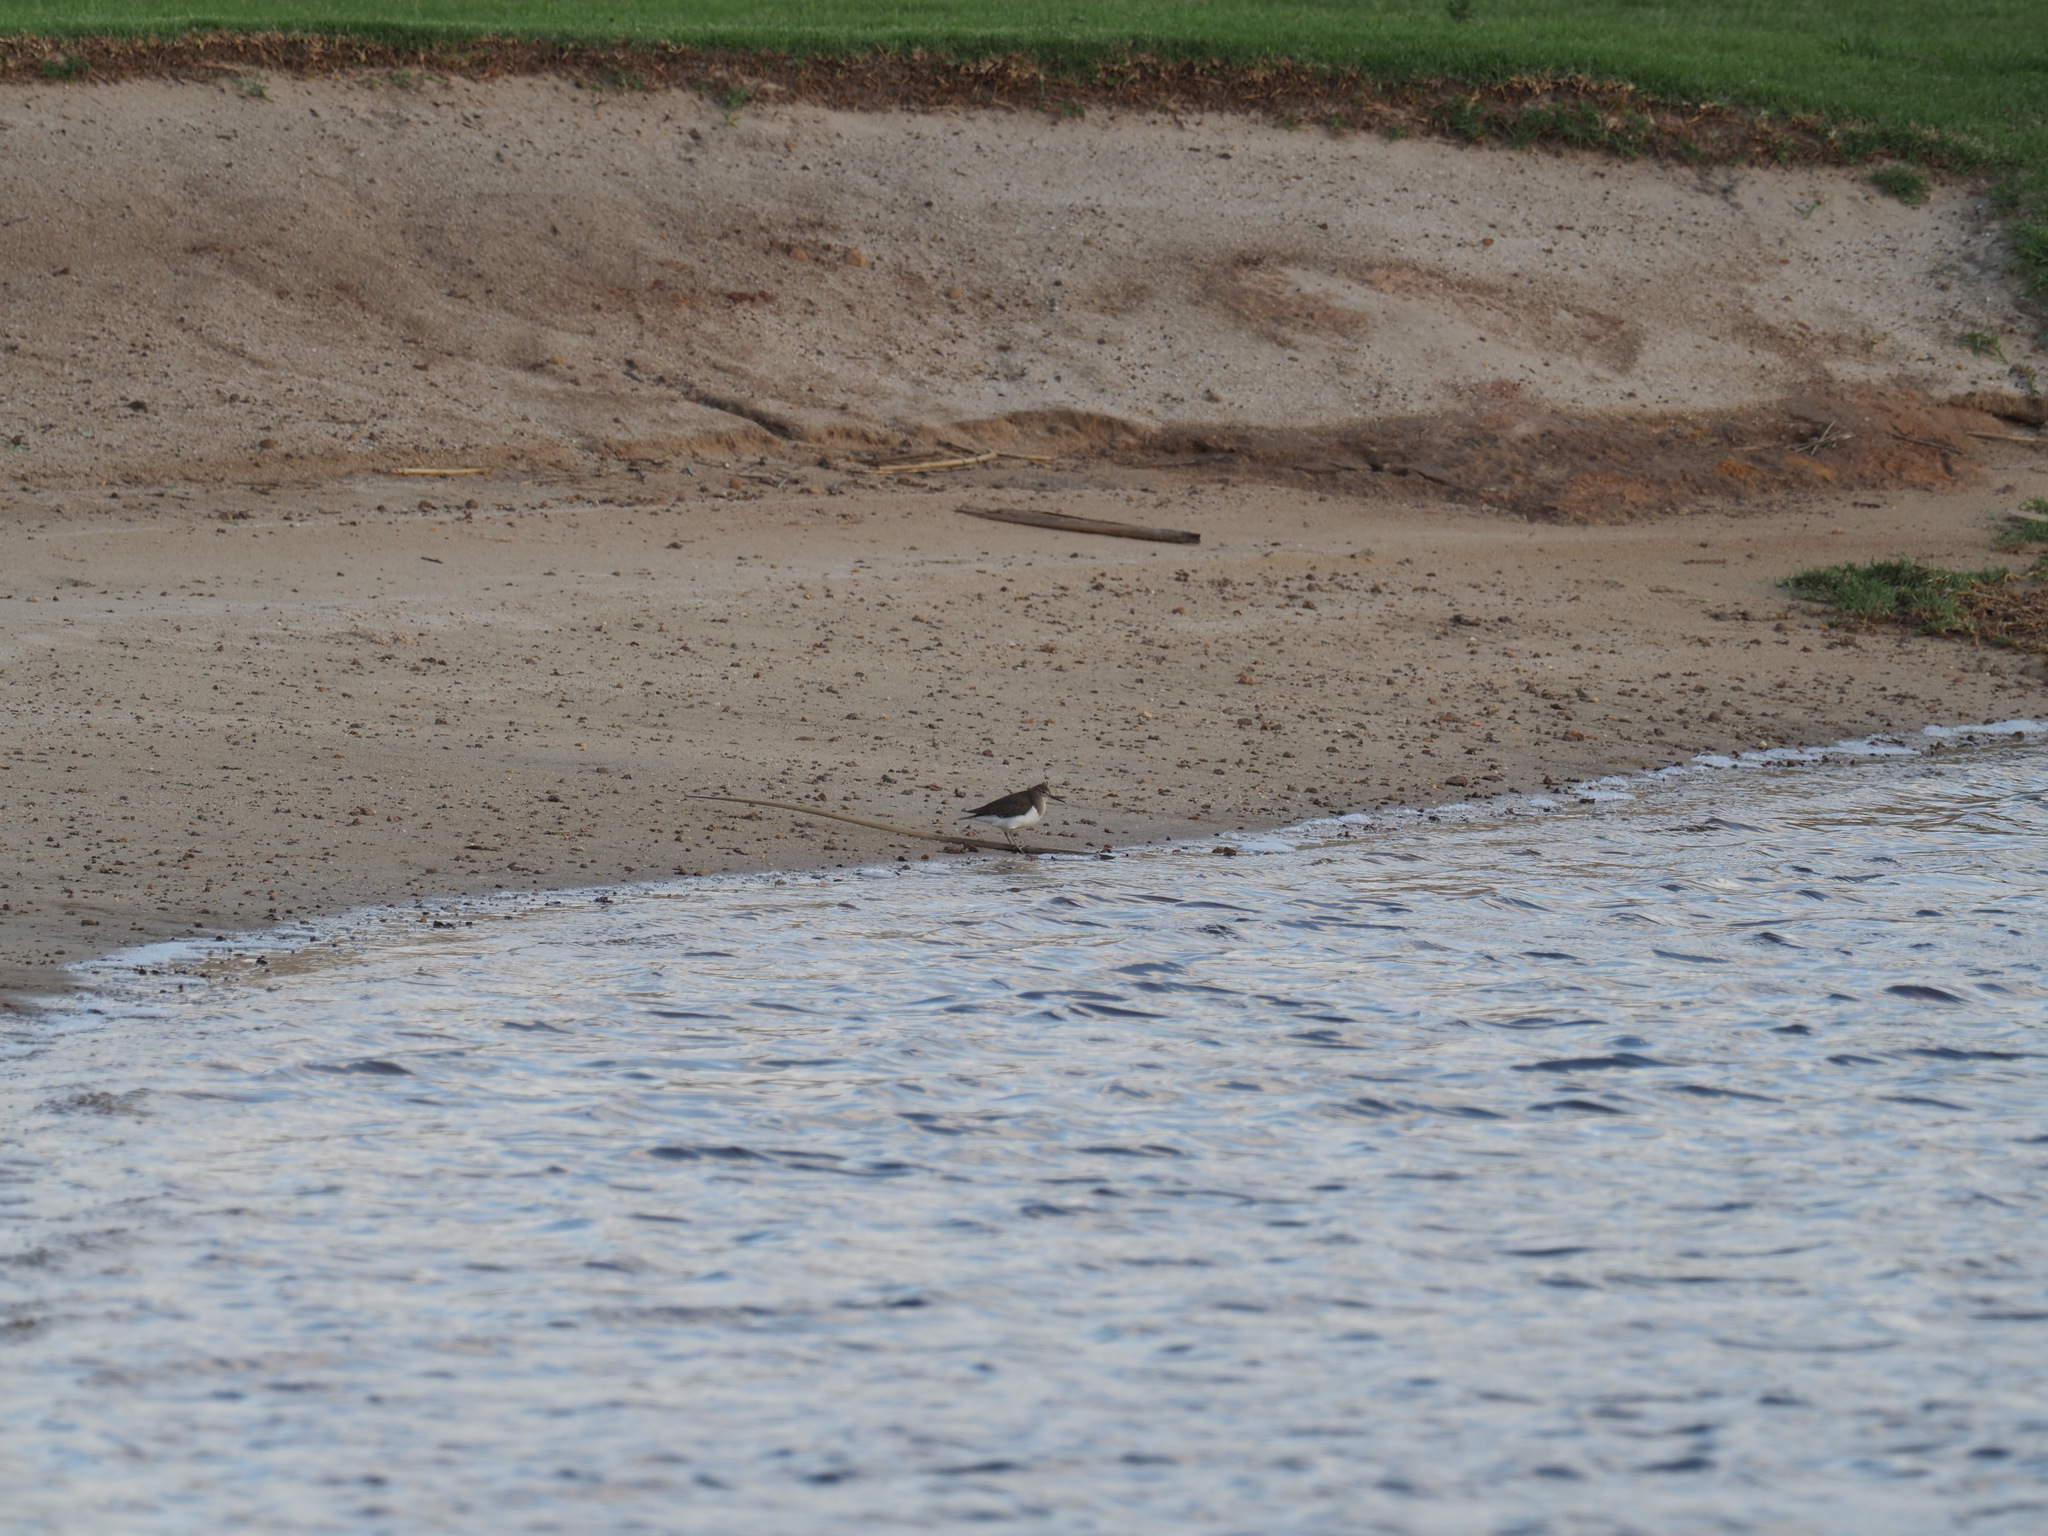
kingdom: Animalia
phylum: Chordata
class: Aves
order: Charadriiformes
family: Scolopacidae
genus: Actitis
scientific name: Actitis hypoleucos
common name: Common sandpiper
